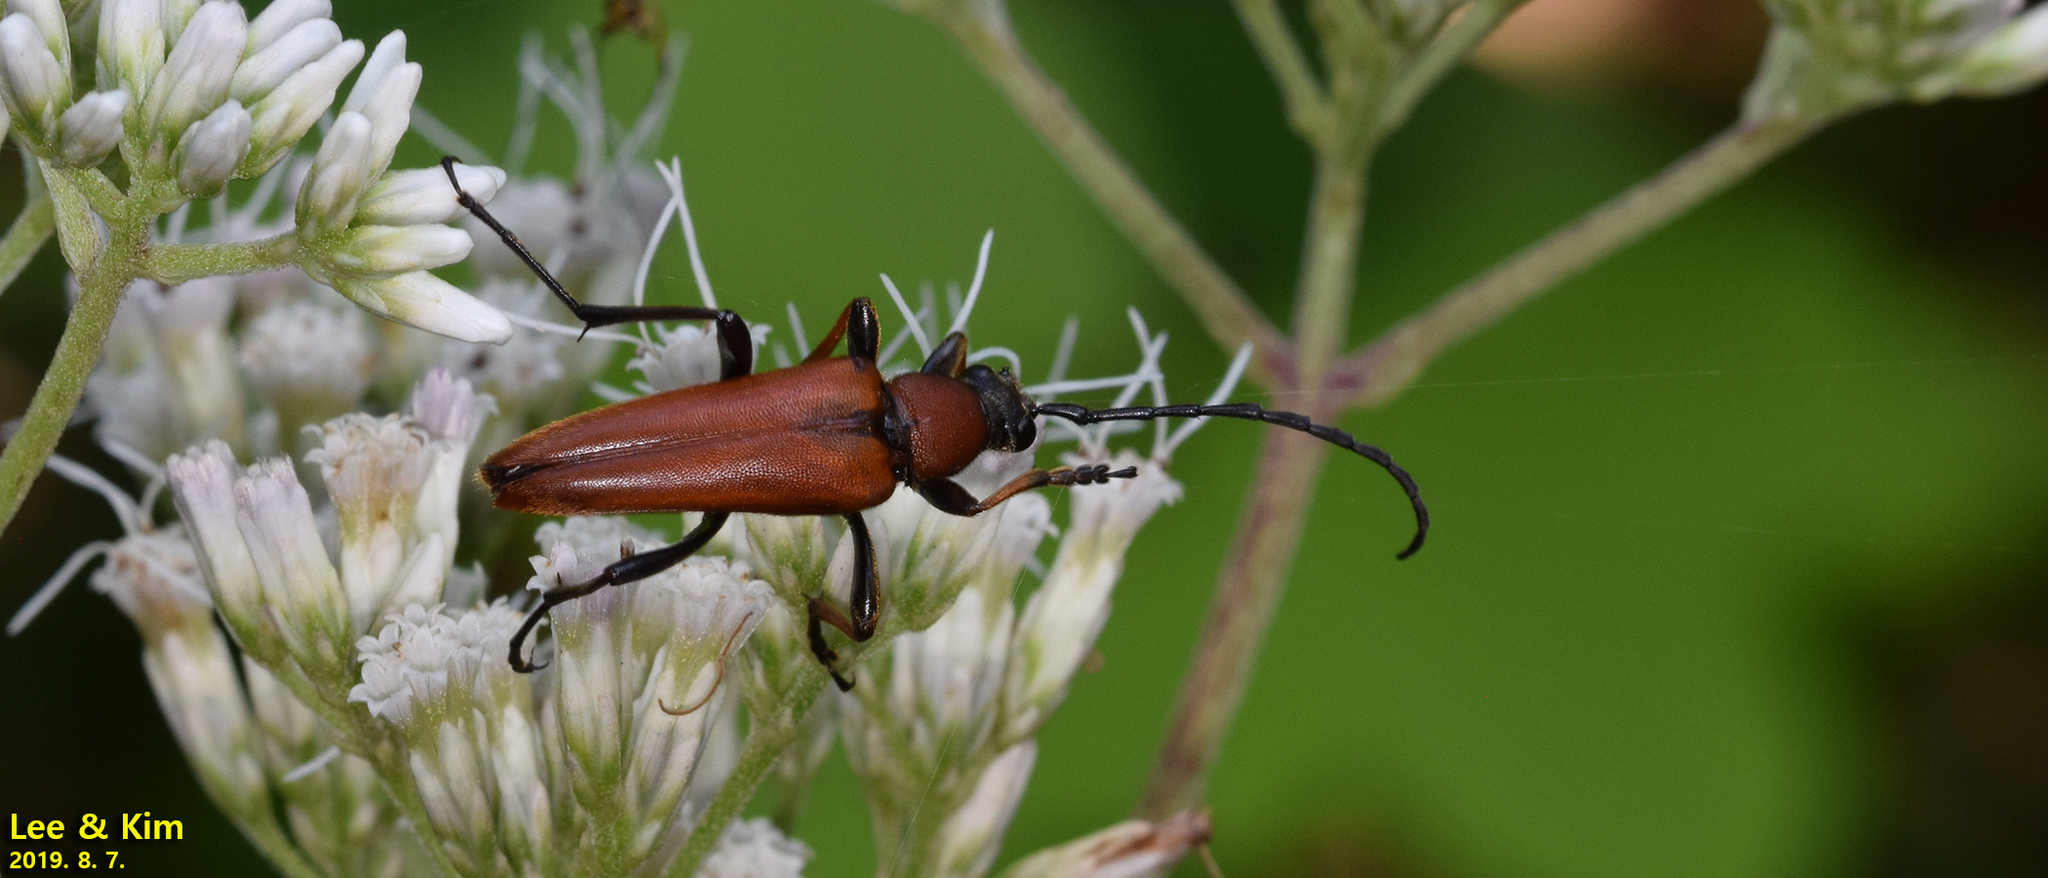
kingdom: Animalia
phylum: Arthropoda
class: Insecta
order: Coleoptera
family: Cerambycidae
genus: Stictoleptura
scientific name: Stictoleptura dichroa
